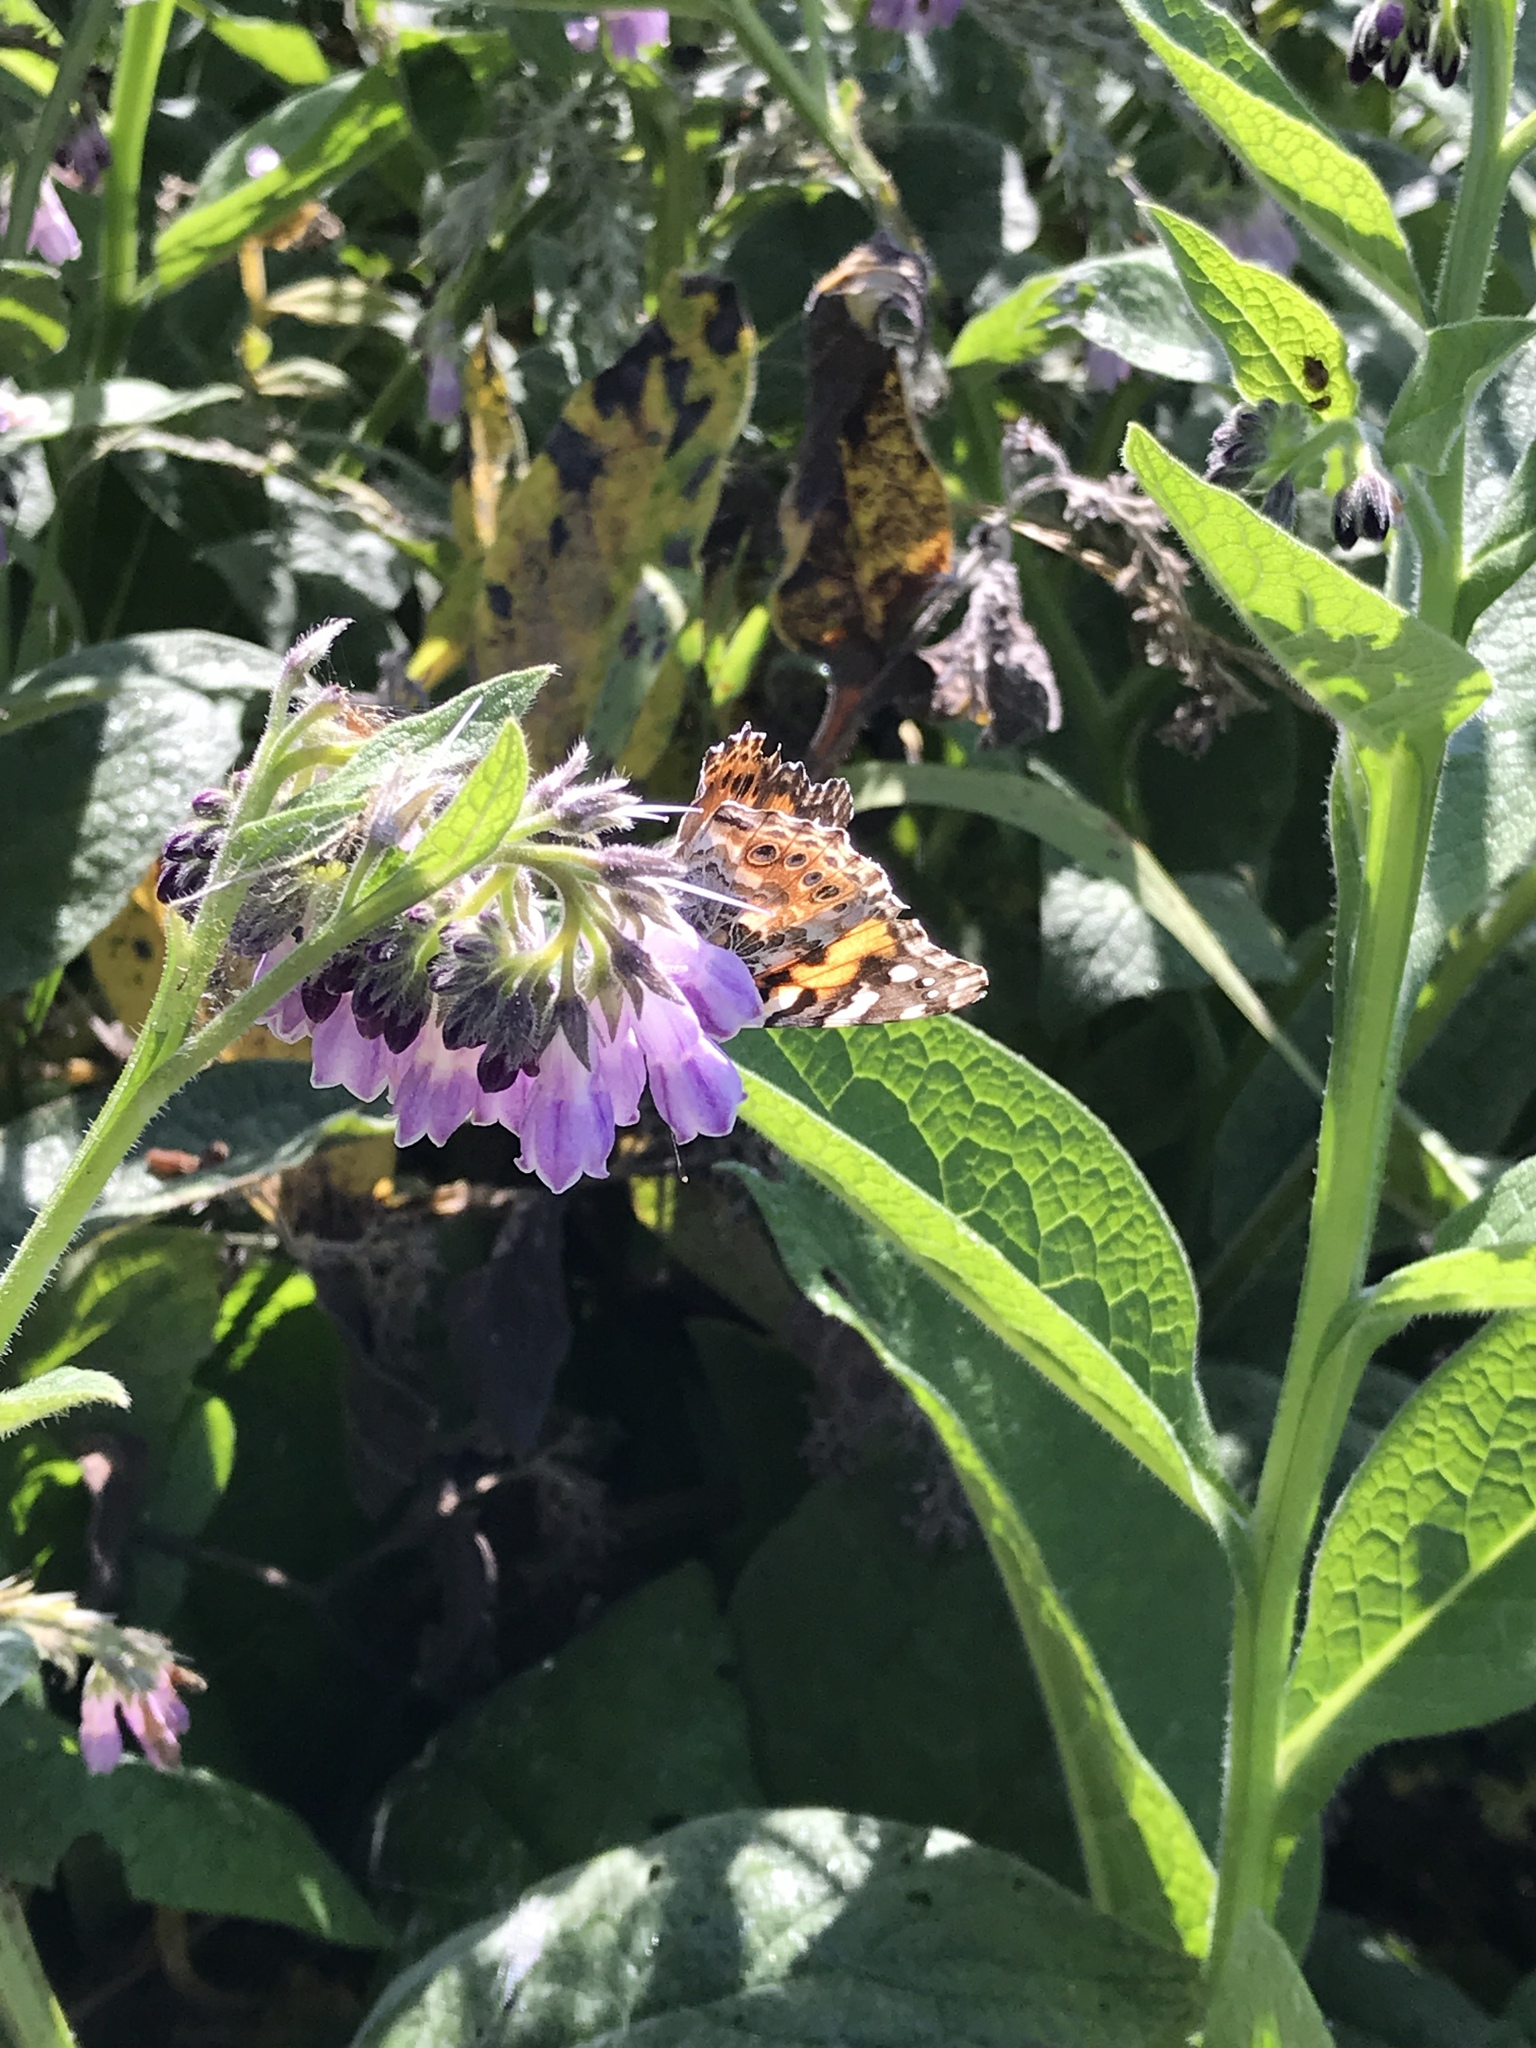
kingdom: Animalia
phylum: Arthropoda
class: Insecta
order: Lepidoptera
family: Nymphalidae
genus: Vanessa
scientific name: Vanessa cardui
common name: Painted lady
